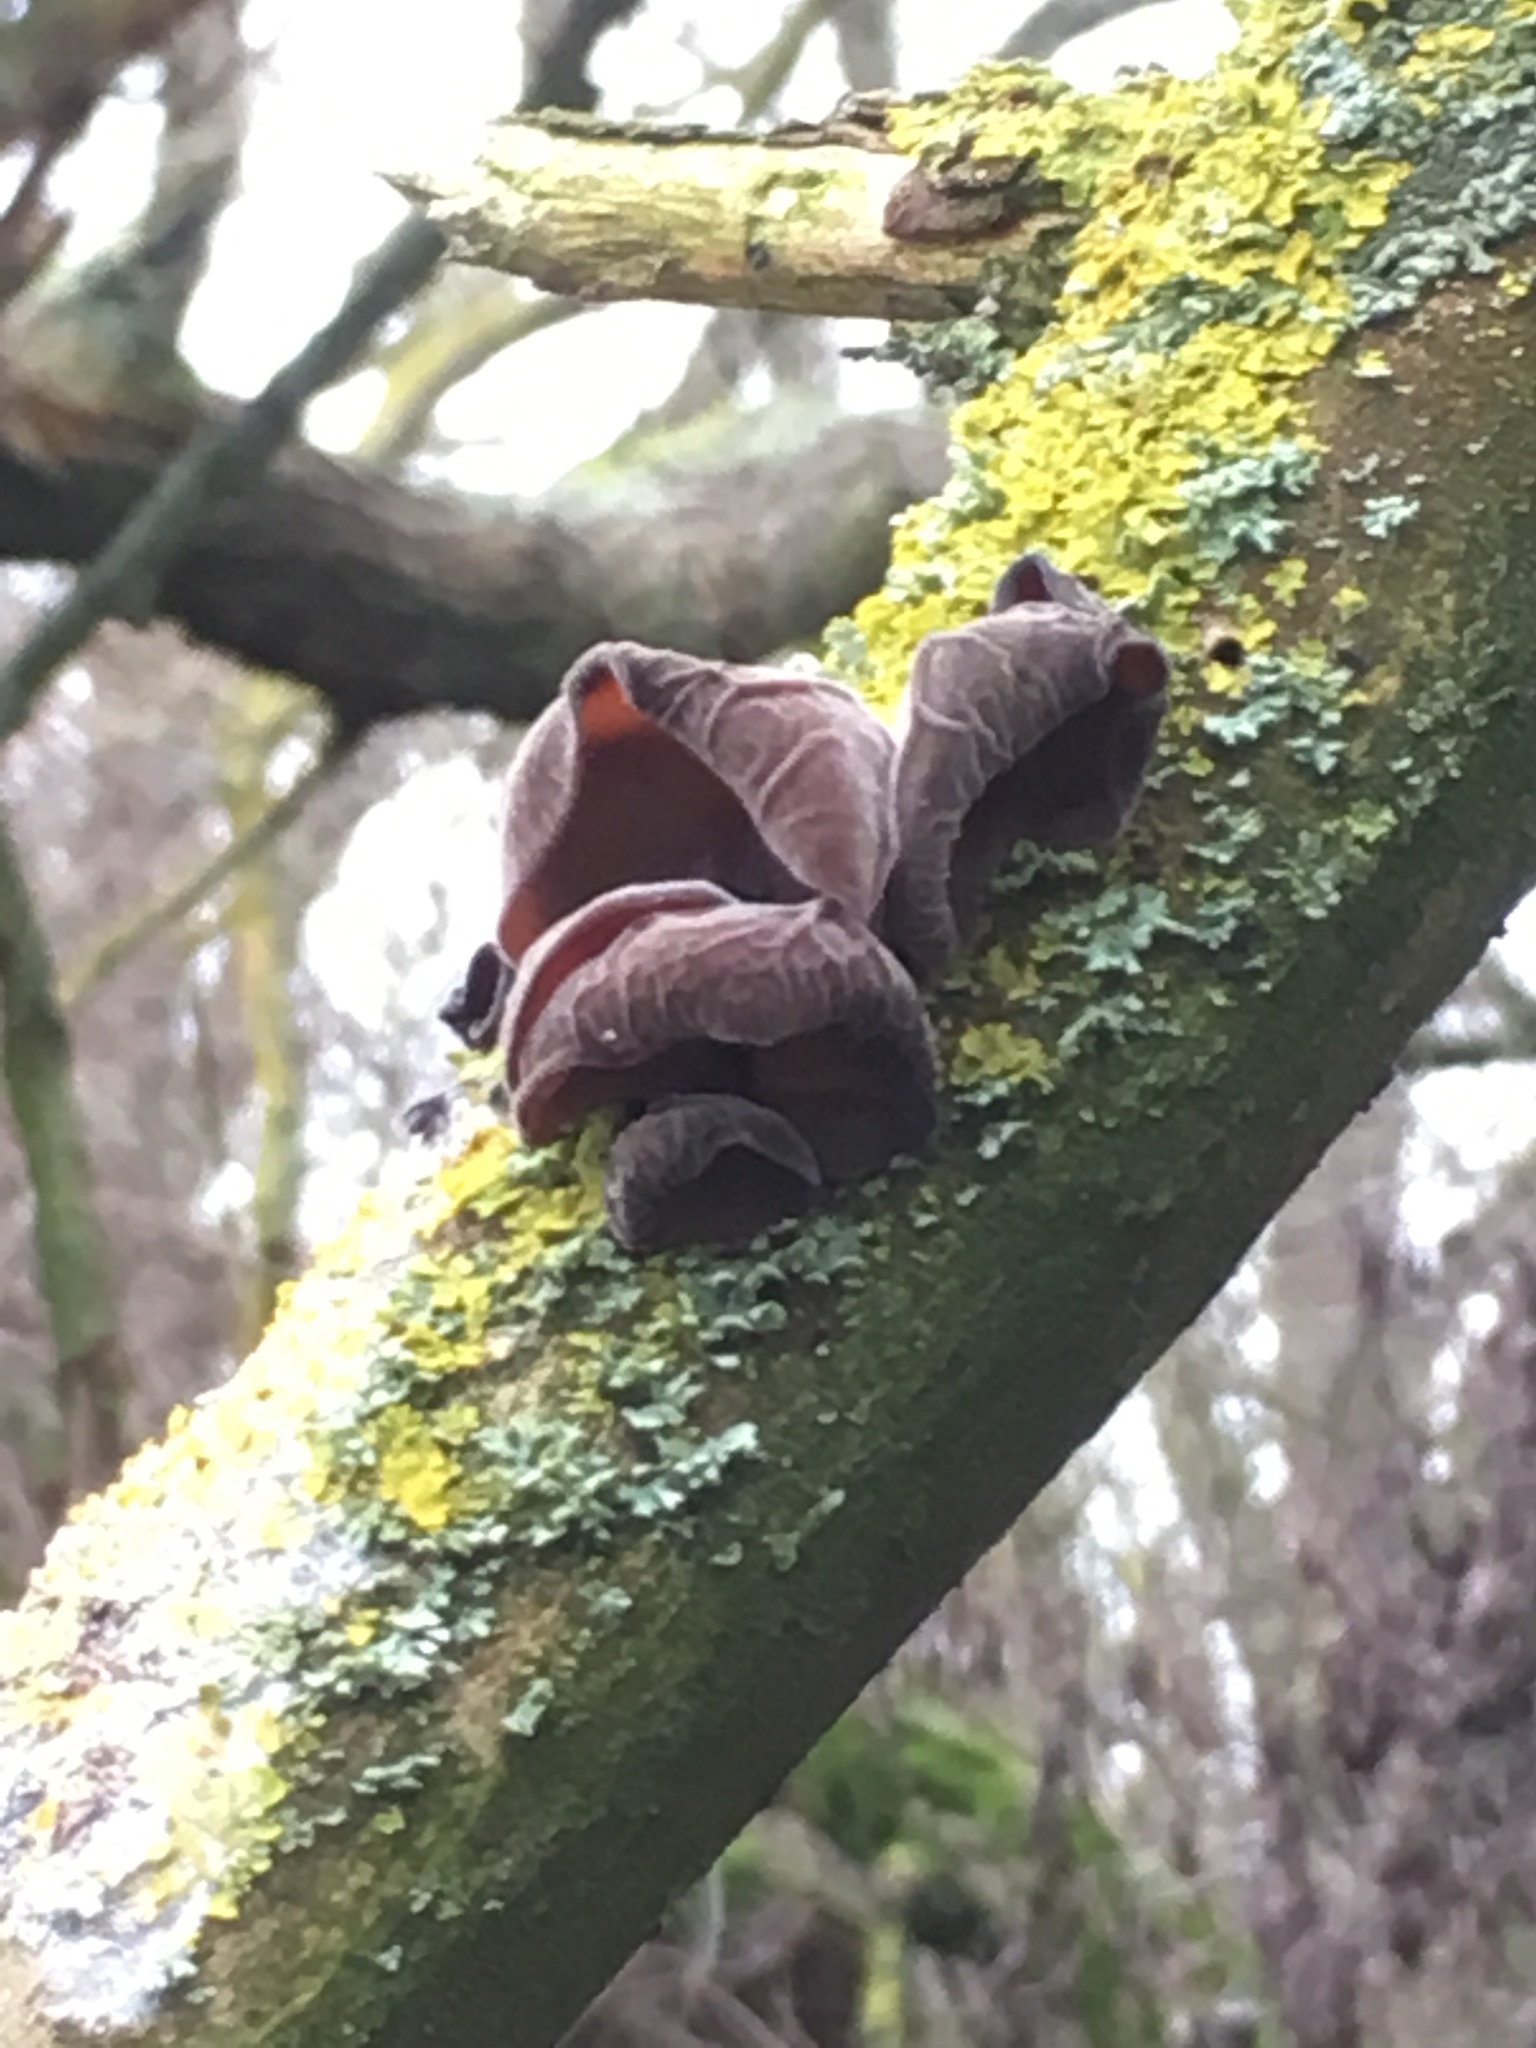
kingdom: Fungi
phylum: Basidiomycota
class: Agaricomycetes
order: Auriculariales
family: Auriculariaceae
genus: Auricularia
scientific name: Auricularia auricula-judae
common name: Jelly ear
